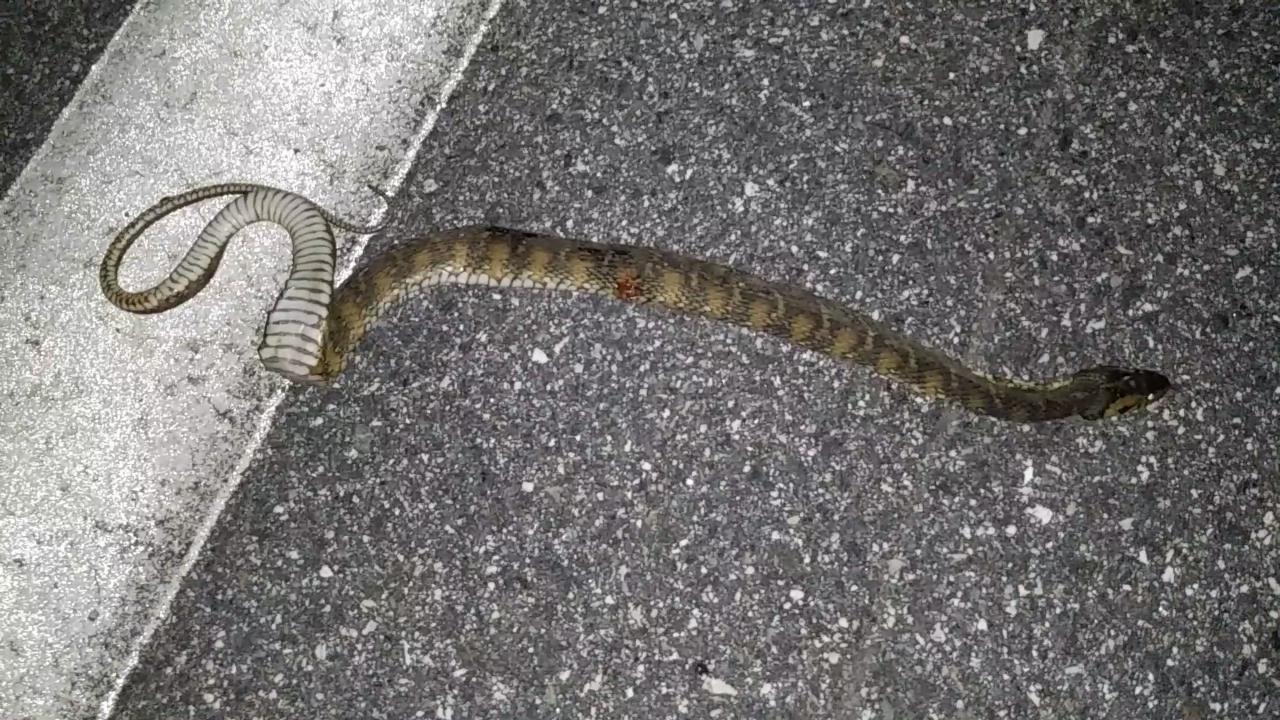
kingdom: Animalia
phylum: Chordata
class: Squamata
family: Colubridae
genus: Nerodia
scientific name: Nerodia fasciata
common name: Southern water snake
